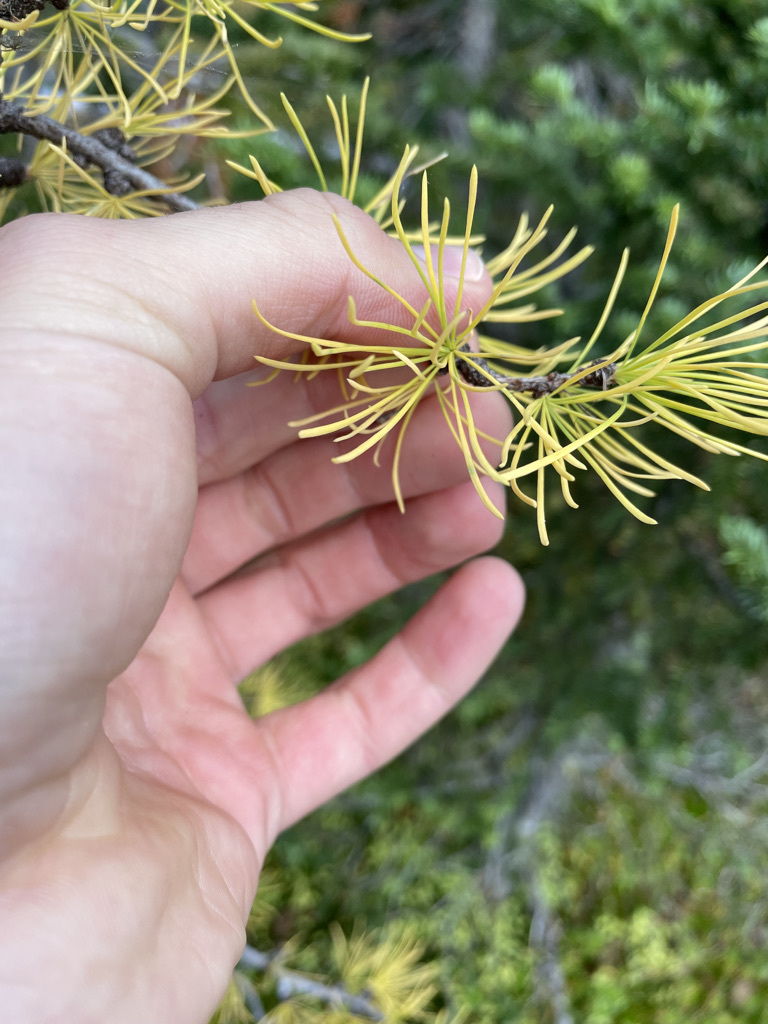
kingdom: Plantae
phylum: Tracheophyta
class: Pinopsida
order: Pinales
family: Pinaceae
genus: Larix
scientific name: Larix lyallii
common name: Alpine larch
